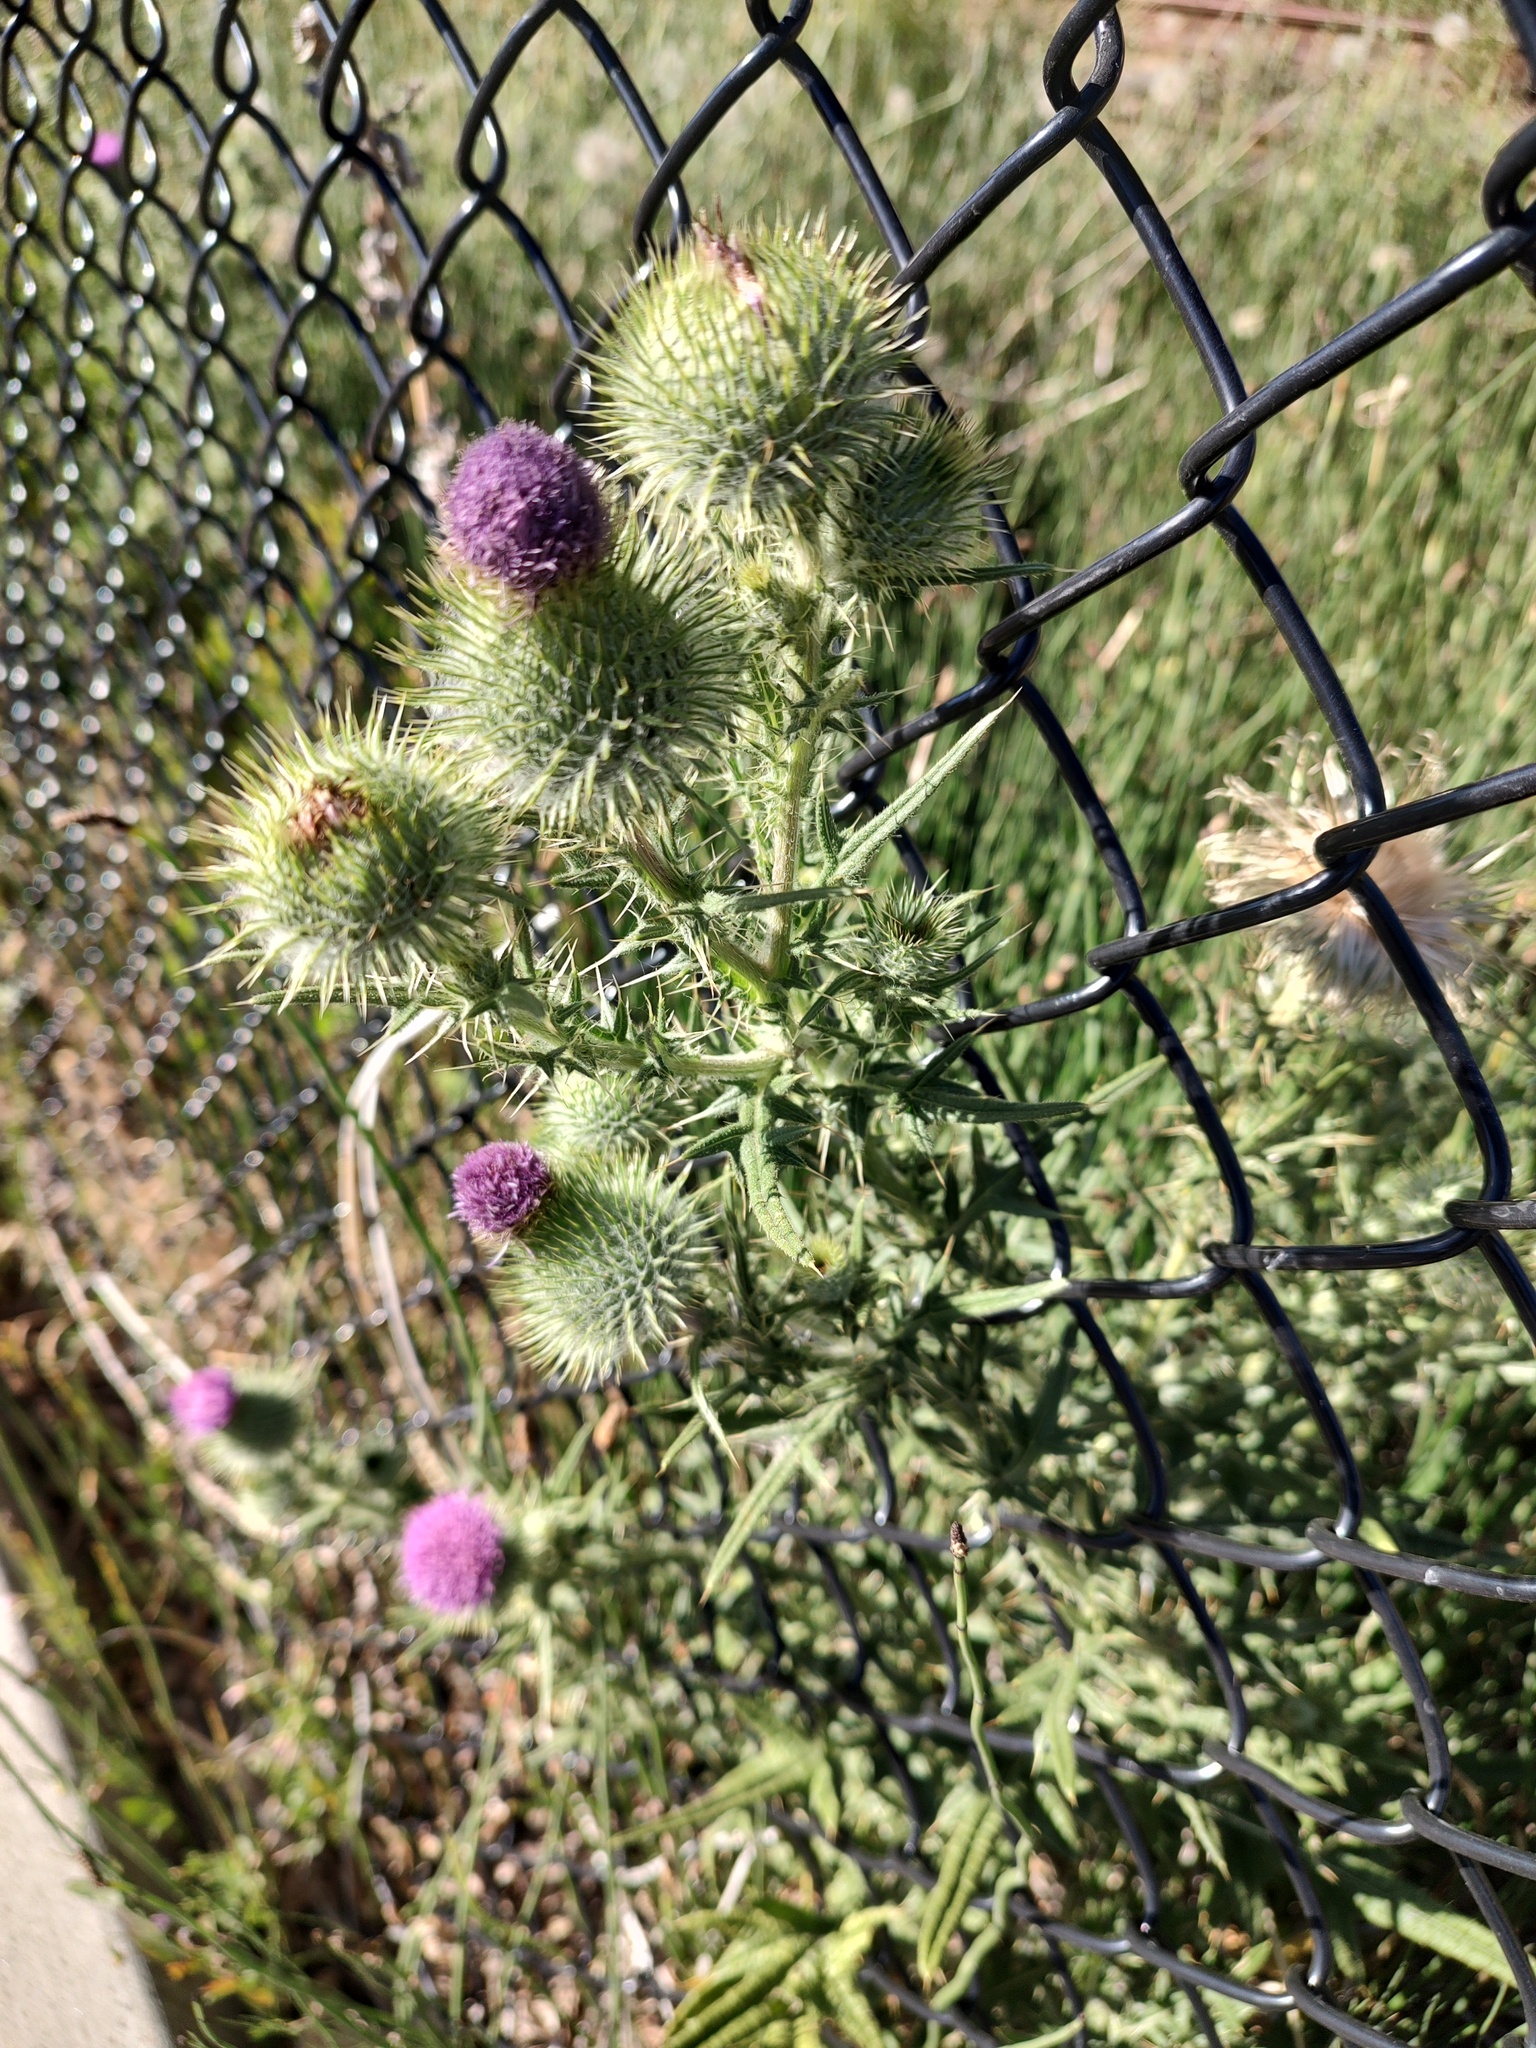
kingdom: Plantae
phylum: Tracheophyta
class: Magnoliopsida
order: Asterales
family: Asteraceae
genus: Cirsium
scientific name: Cirsium vulgare
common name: Bull thistle
